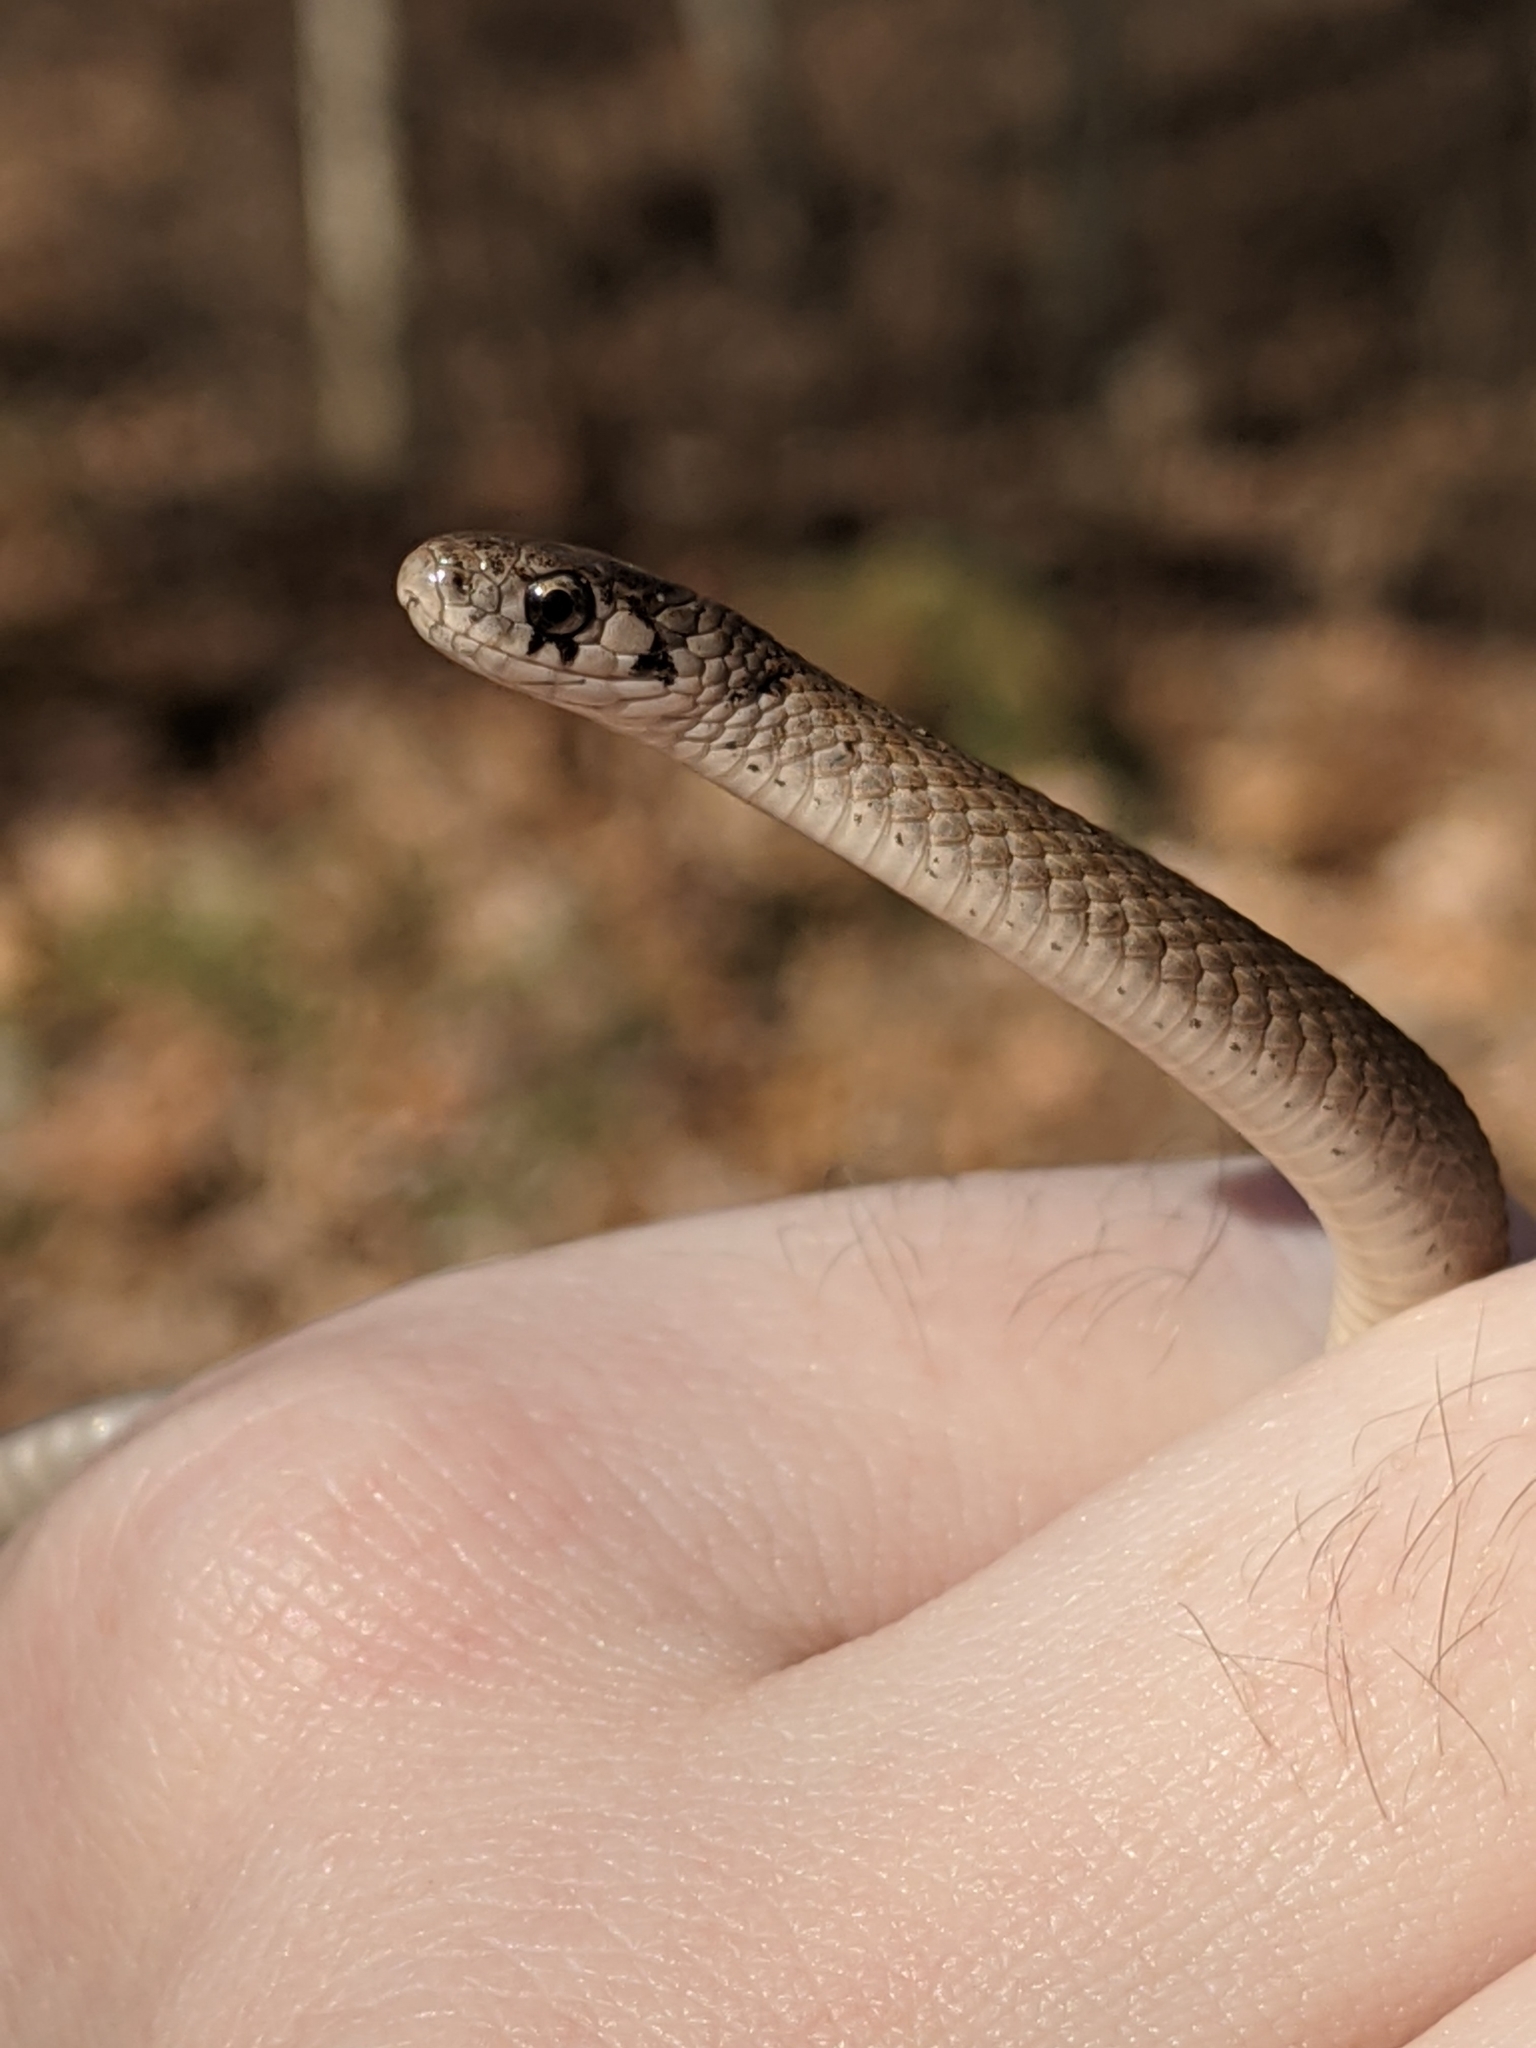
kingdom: Animalia
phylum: Chordata
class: Squamata
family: Colubridae
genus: Storeria
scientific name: Storeria dekayi
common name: (dekay’s) brown snake
